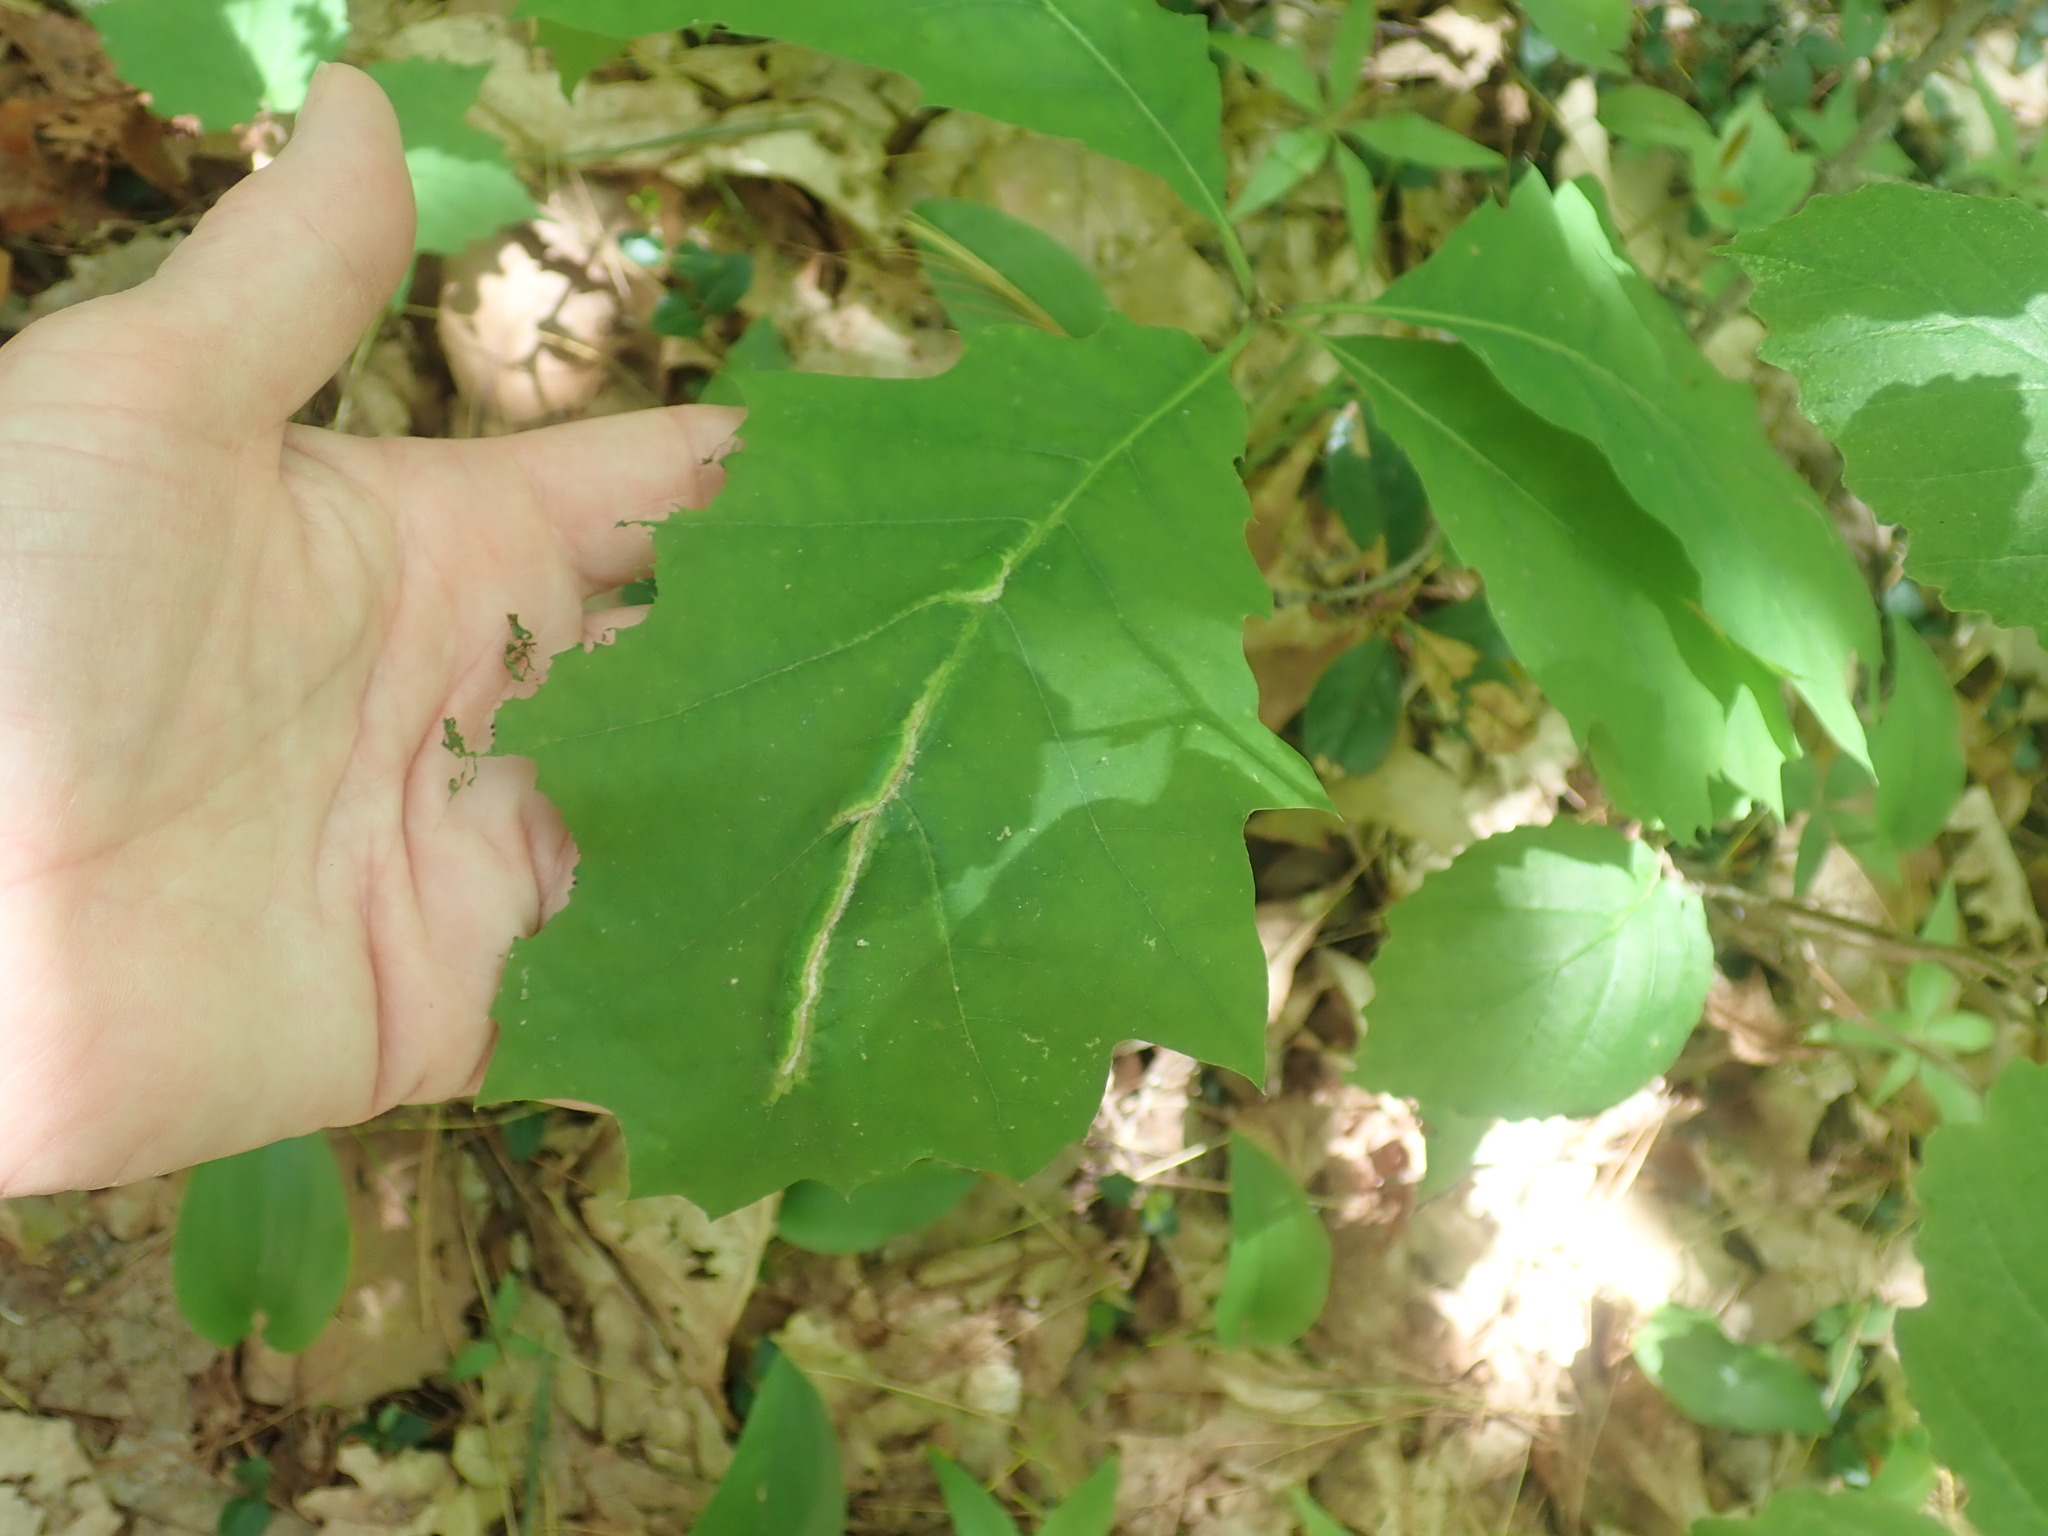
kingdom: Animalia
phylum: Arthropoda
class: Insecta
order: Diptera
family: Cecidomyiidae
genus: Macrodiplosis
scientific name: Macrodiplosis niveipila
